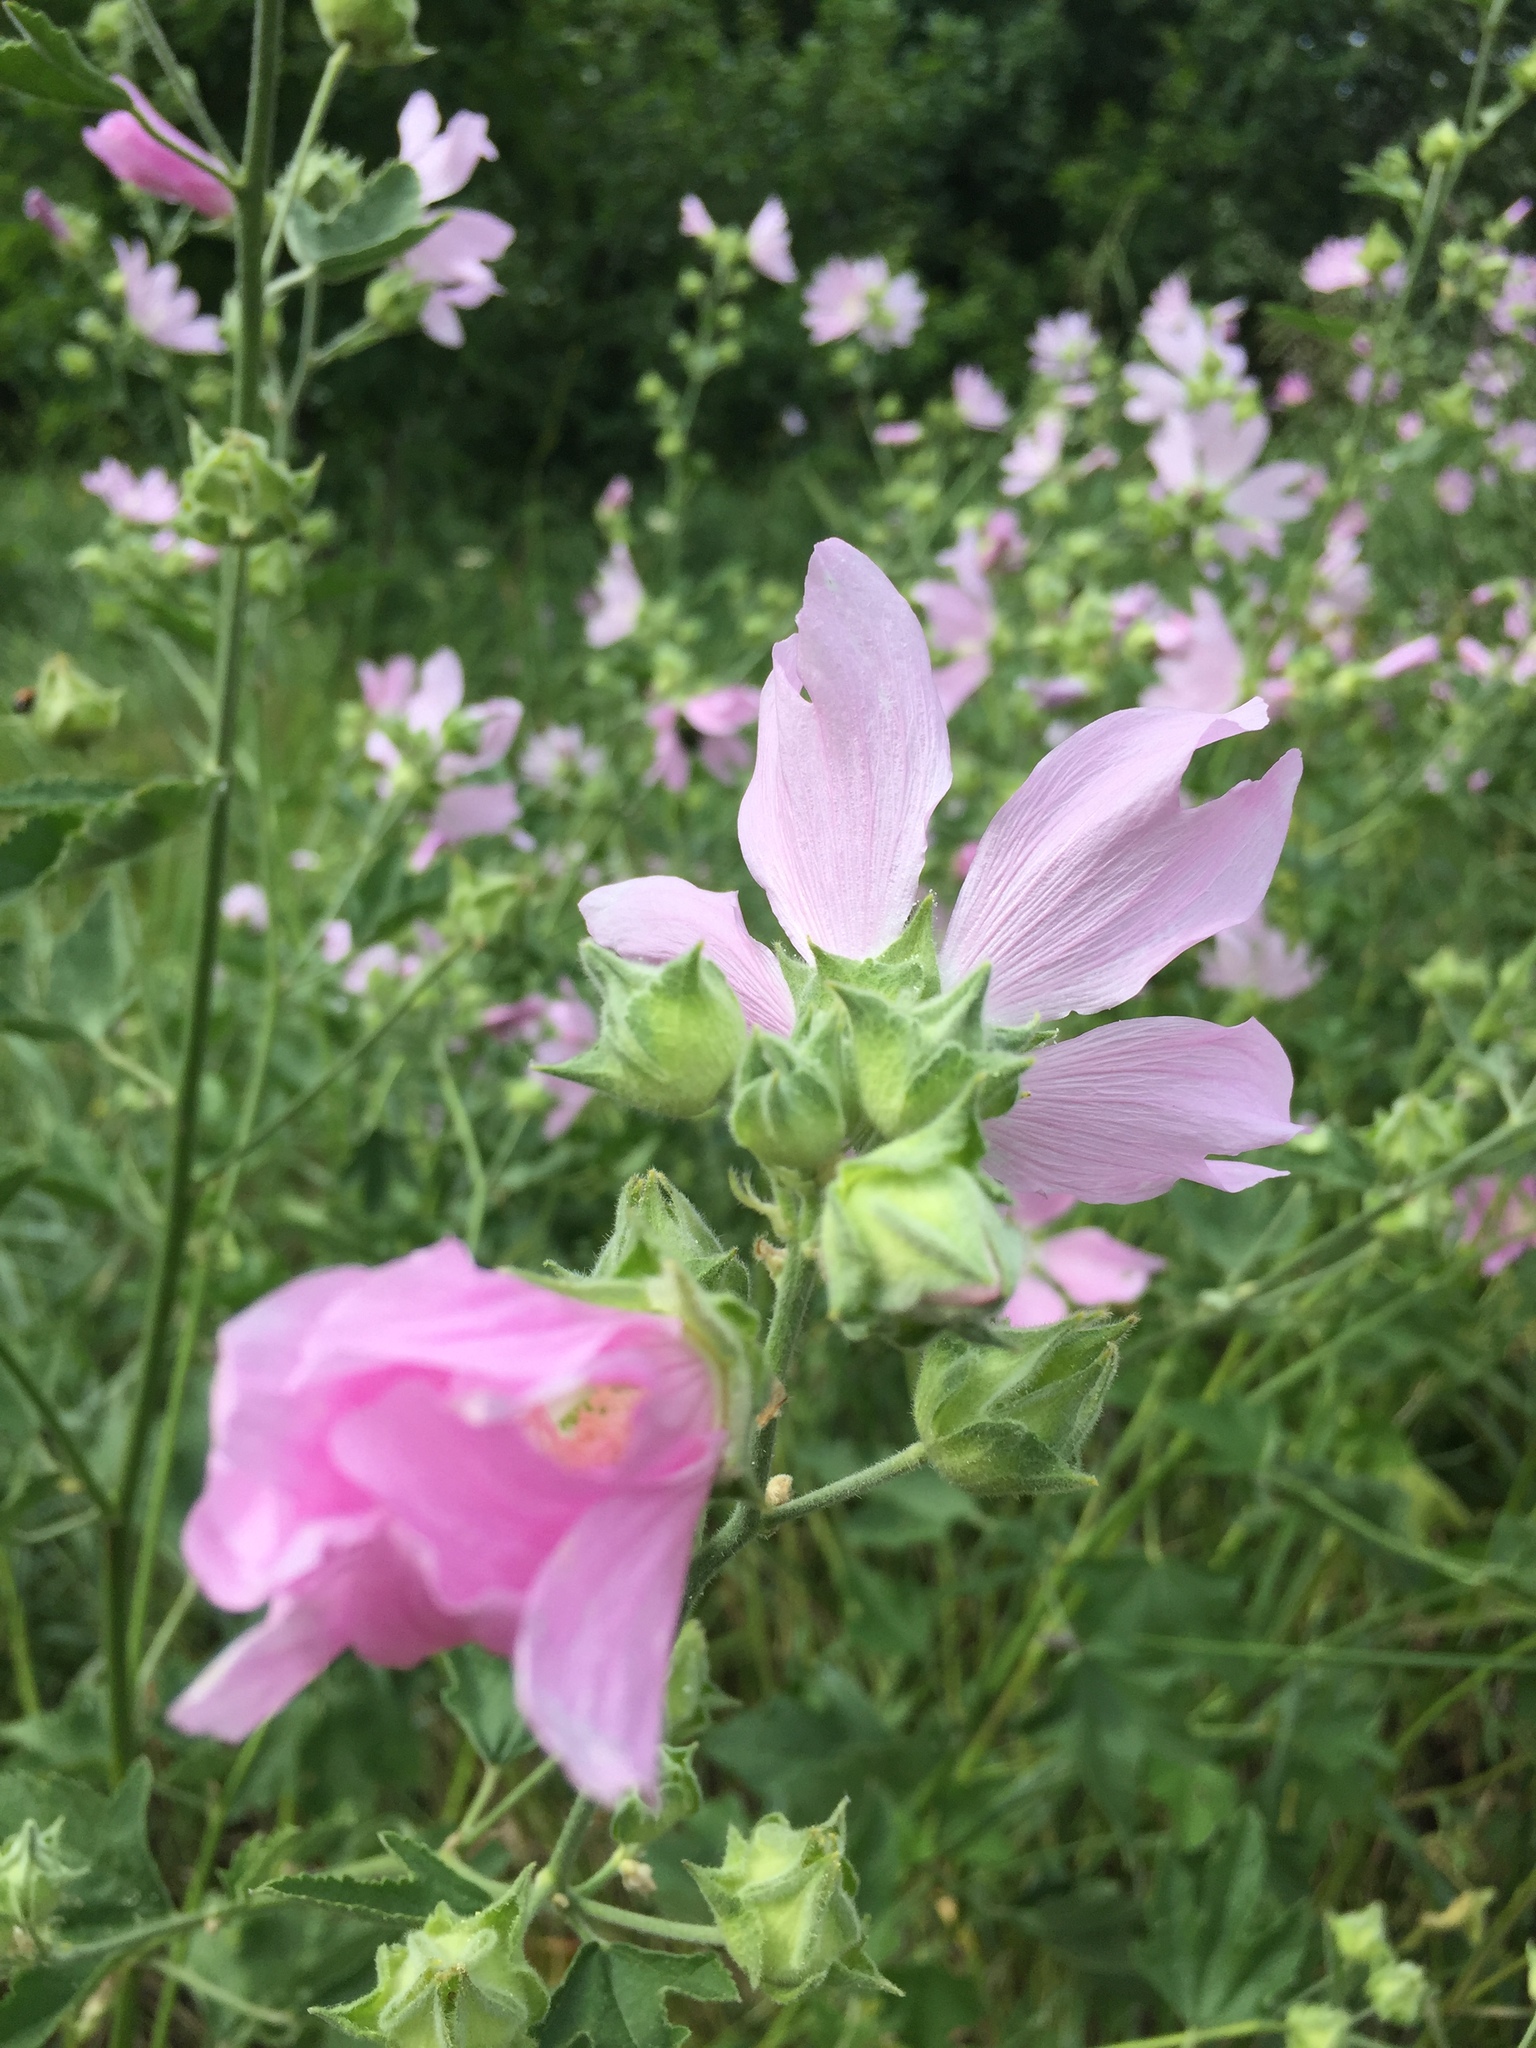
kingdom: Plantae
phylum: Tracheophyta
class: Magnoliopsida
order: Malvales
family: Malvaceae
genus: Malva
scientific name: Malva thuringiaca
